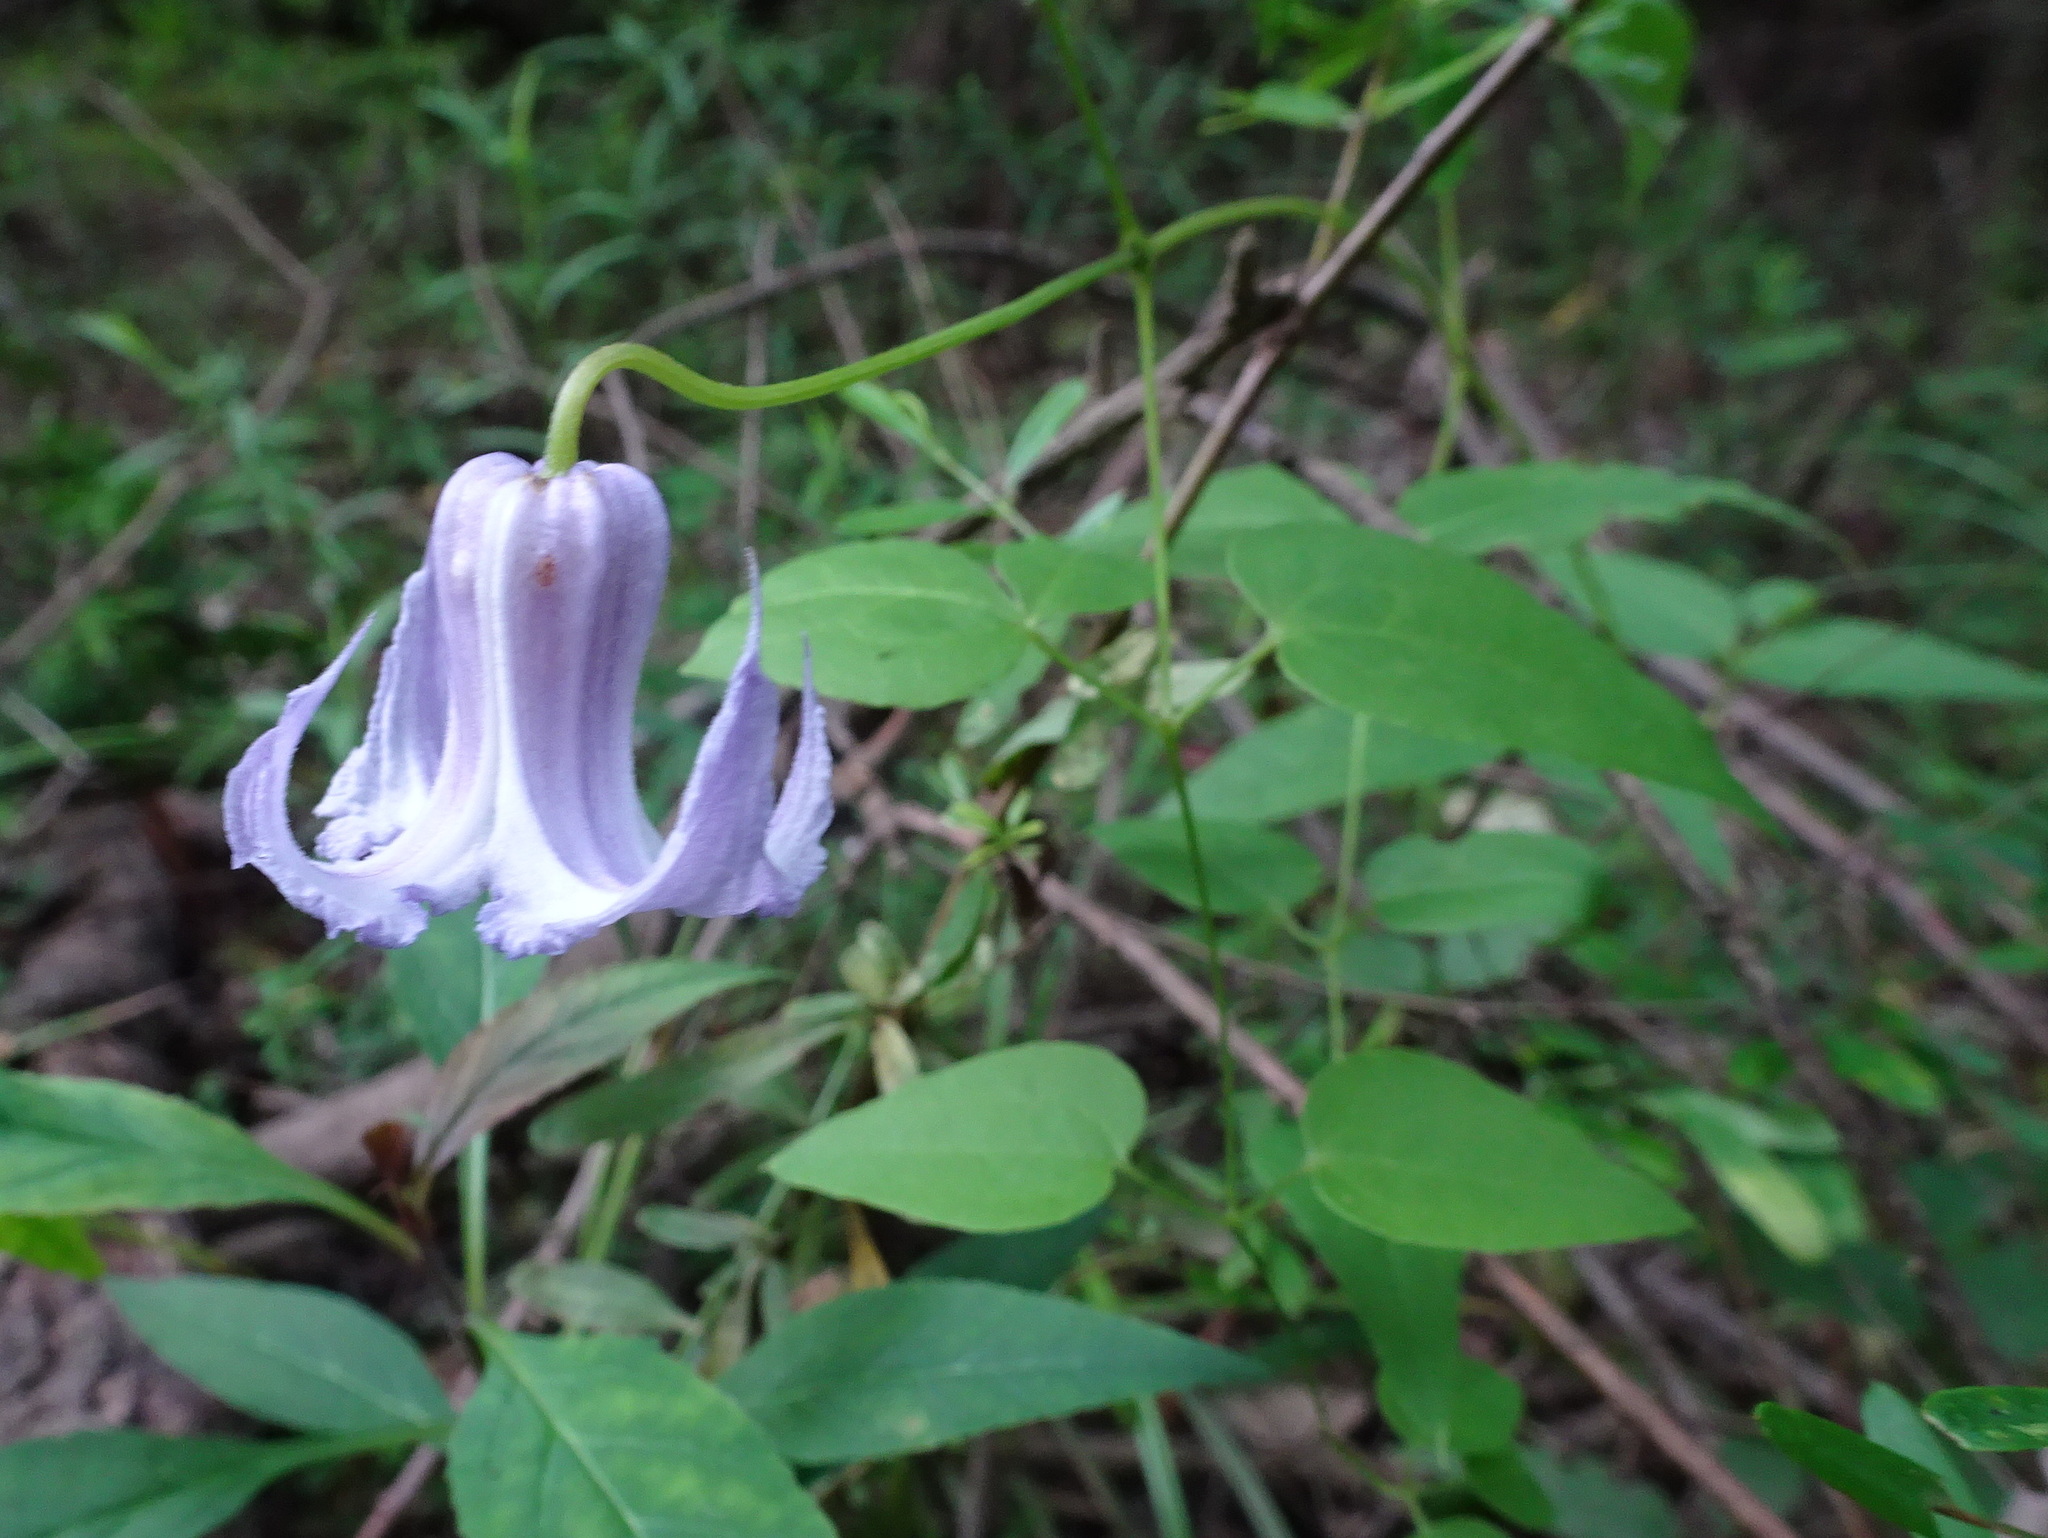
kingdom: Plantae
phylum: Tracheophyta
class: Magnoliopsida
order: Ranunculales
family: Ranunculaceae
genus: Clematis
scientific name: Clematis crispa
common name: Curly clematis
